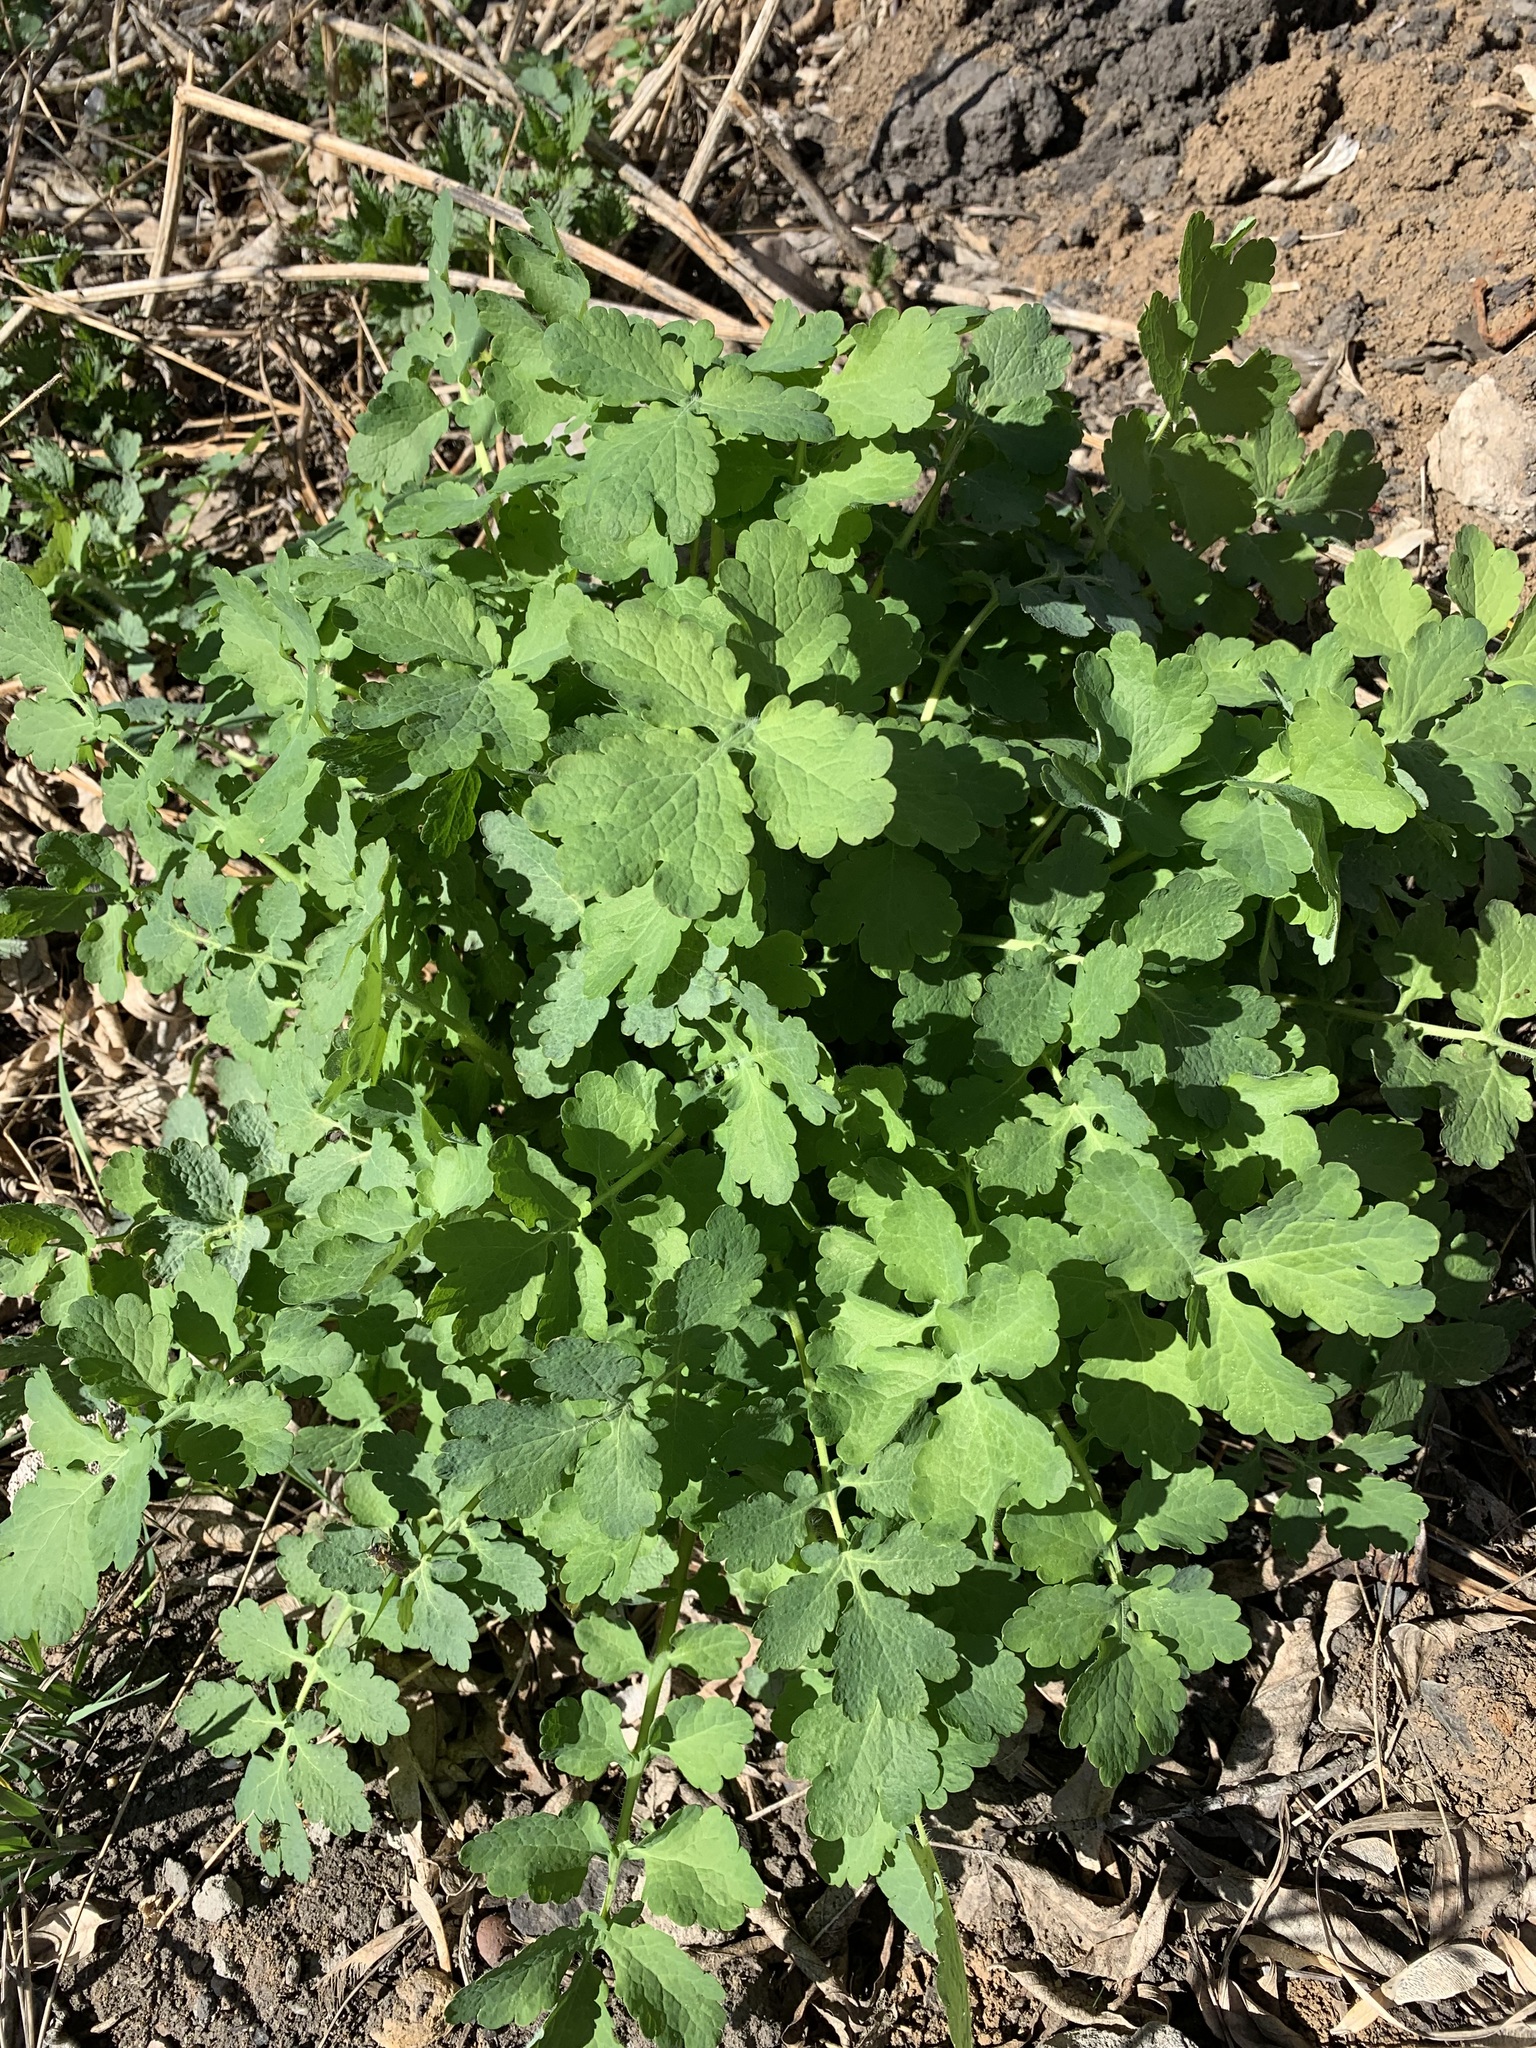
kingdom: Plantae
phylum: Tracheophyta
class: Magnoliopsida
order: Ranunculales
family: Papaveraceae
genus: Chelidonium
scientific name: Chelidonium majus
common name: Greater celandine
